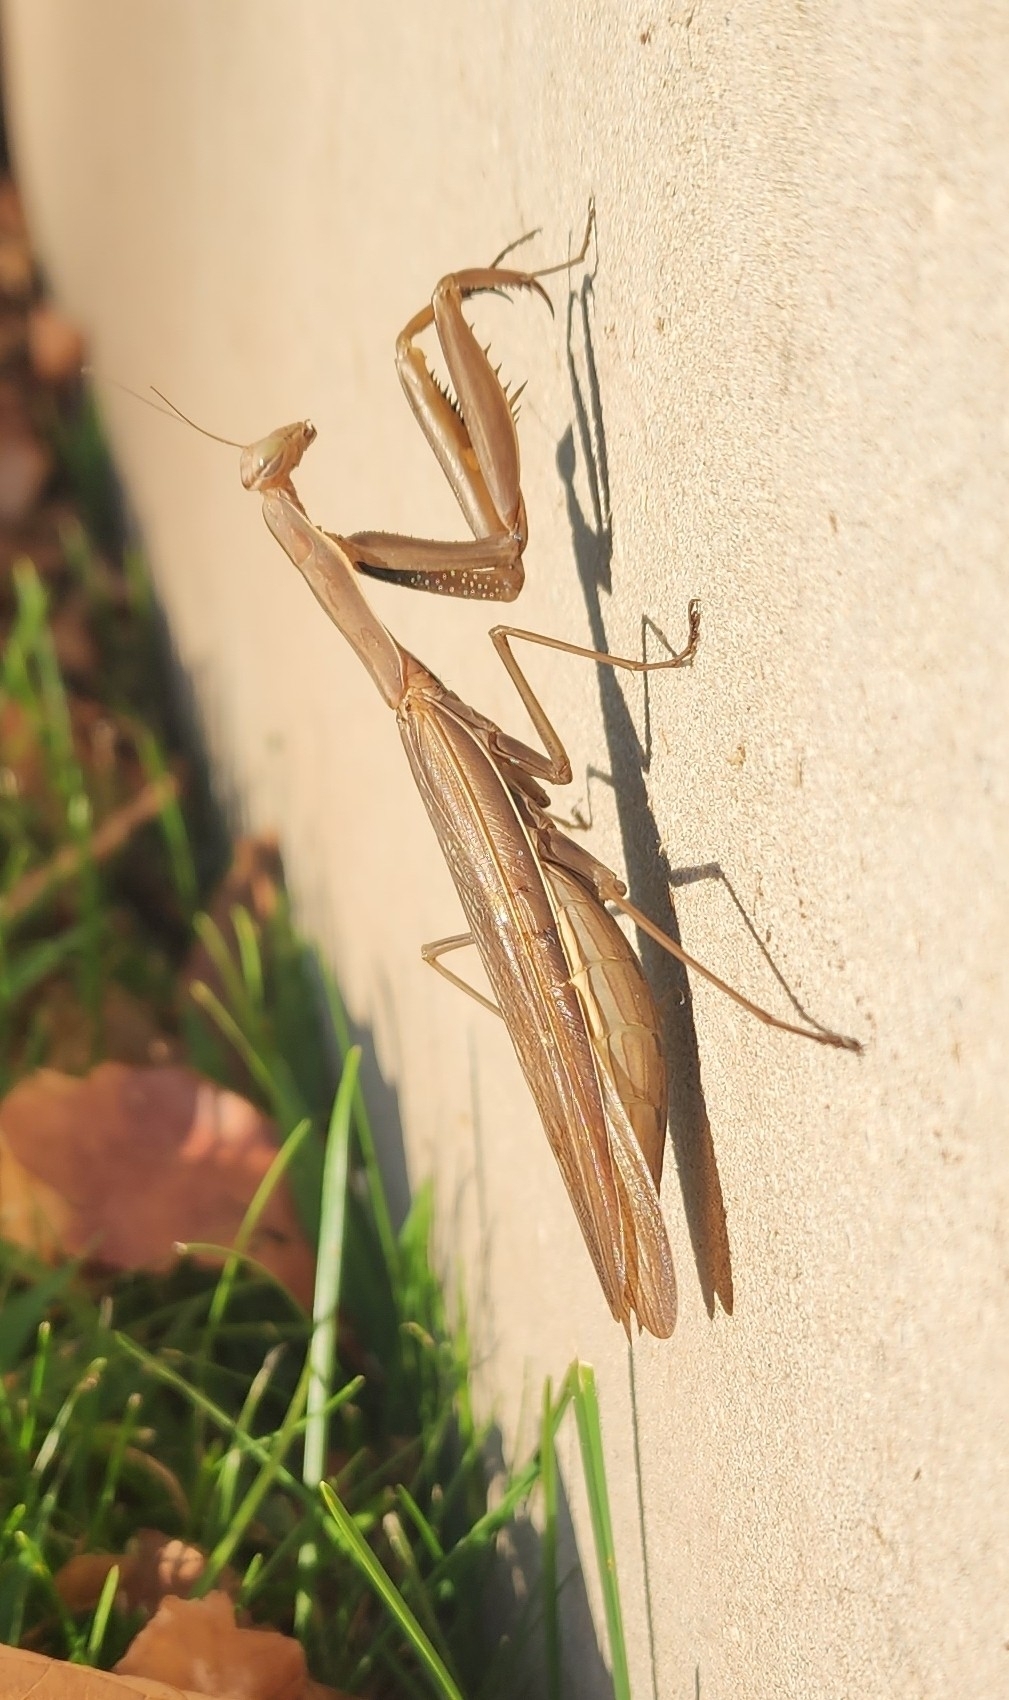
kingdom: Animalia
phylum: Arthropoda
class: Insecta
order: Mantodea
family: Mantidae
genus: Tenodera
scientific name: Tenodera sinensis
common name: Chinese mantis
